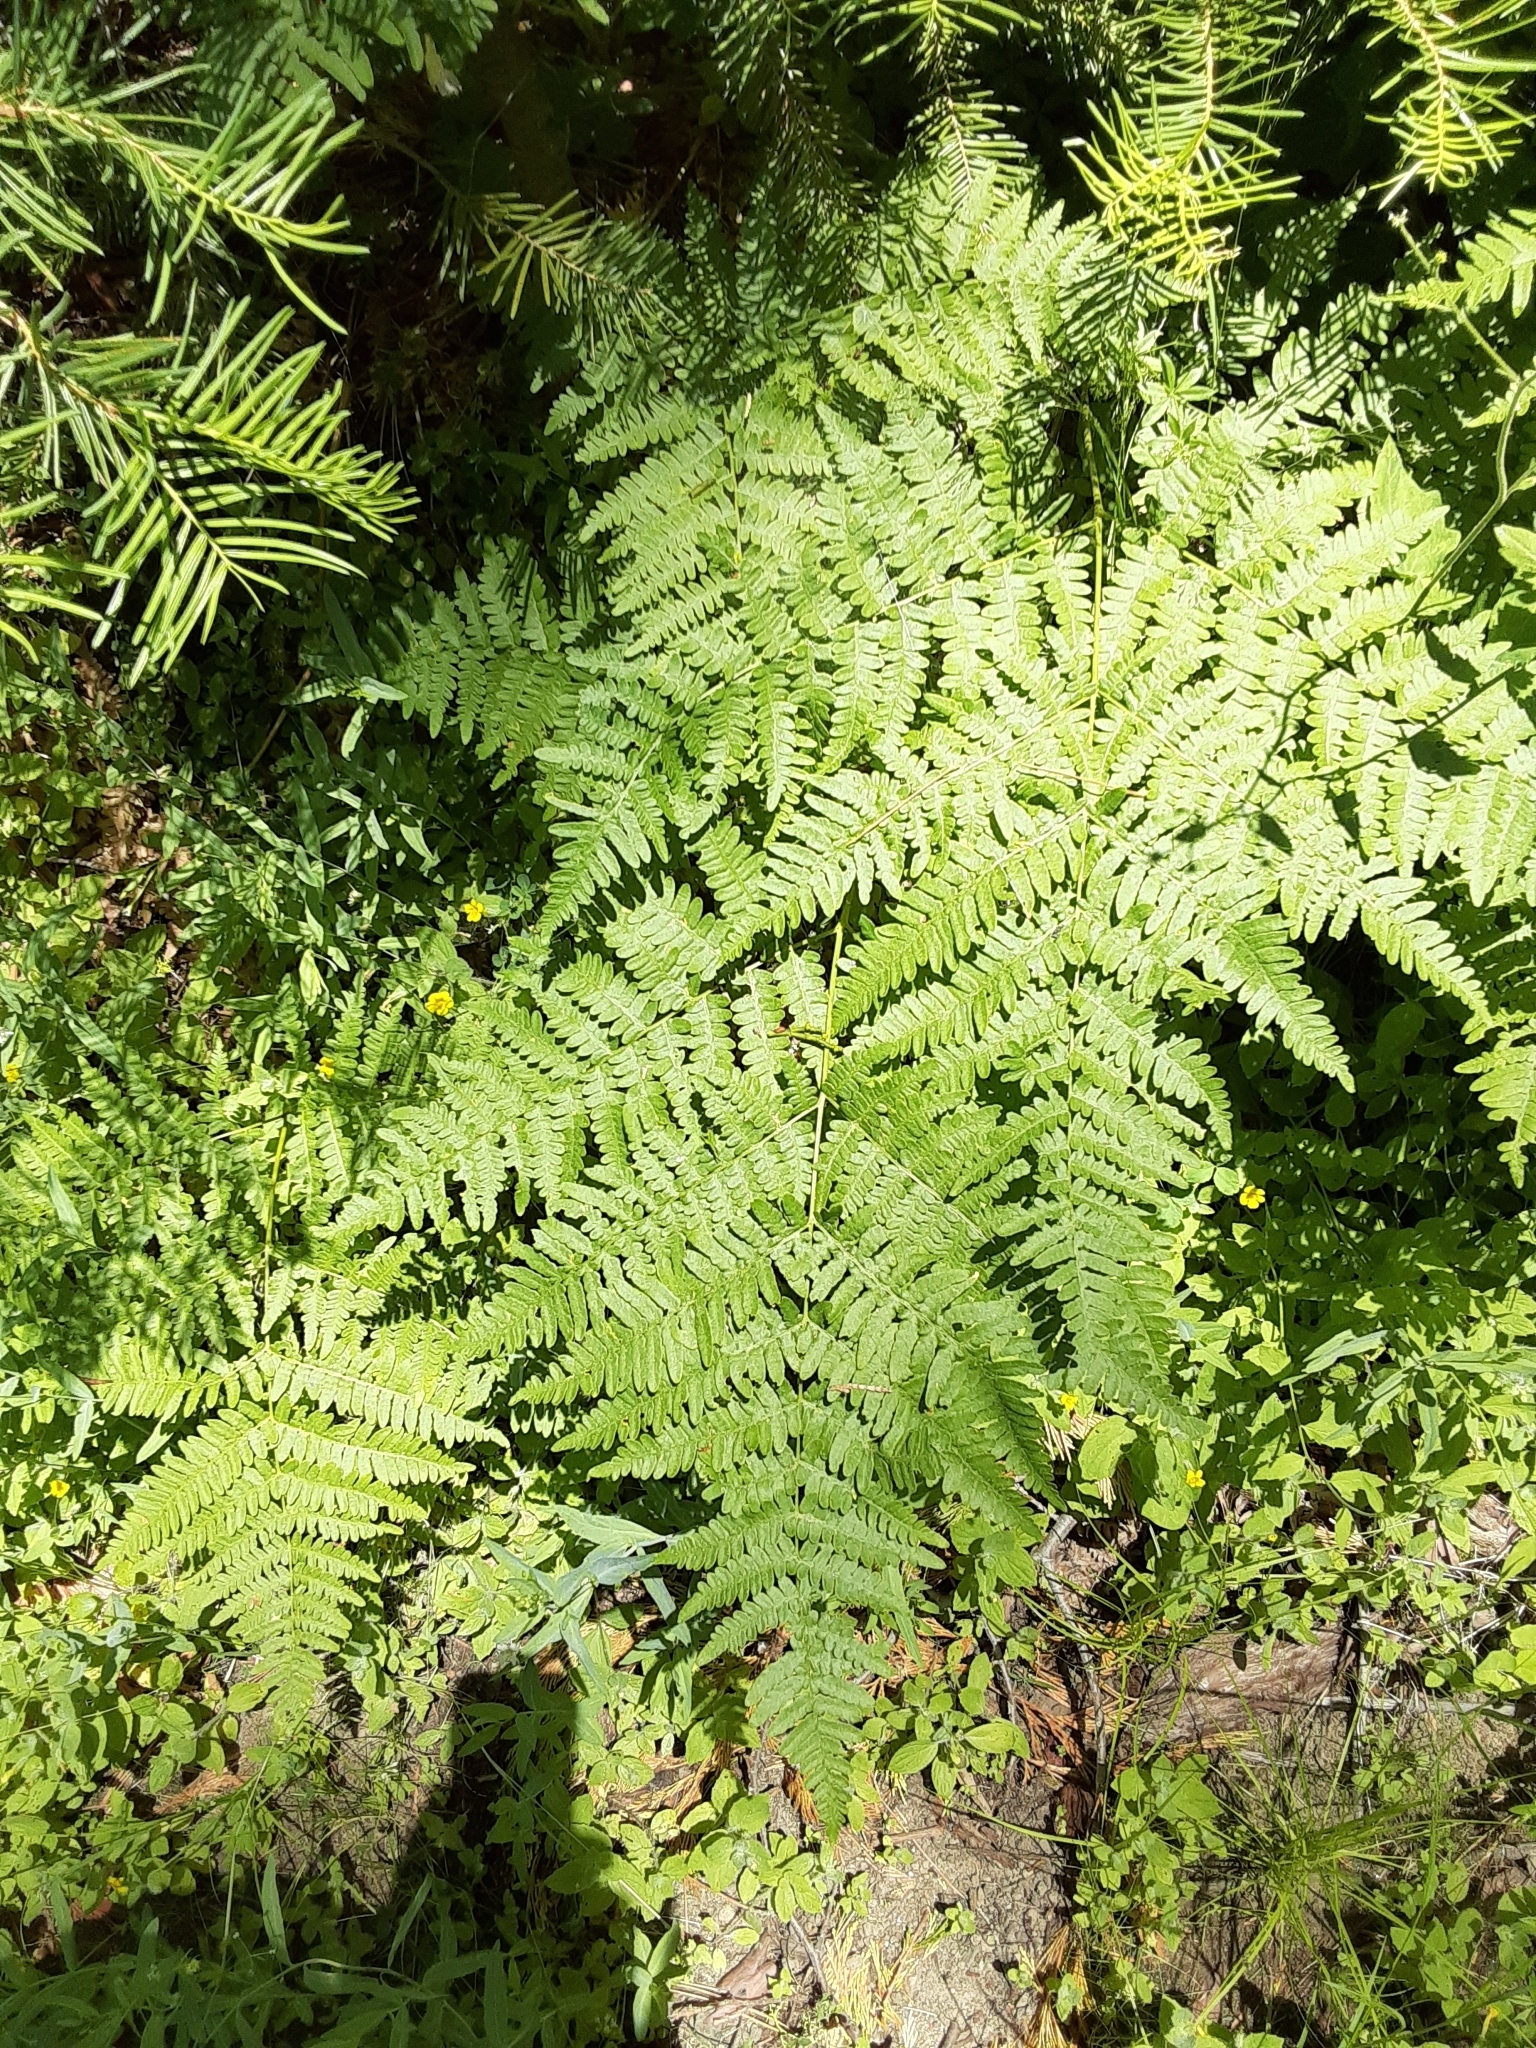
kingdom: Plantae
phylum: Tracheophyta
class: Polypodiopsida
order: Polypodiales
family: Dennstaedtiaceae
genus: Pteridium
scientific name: Pteridium aquilinum
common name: Bracken
